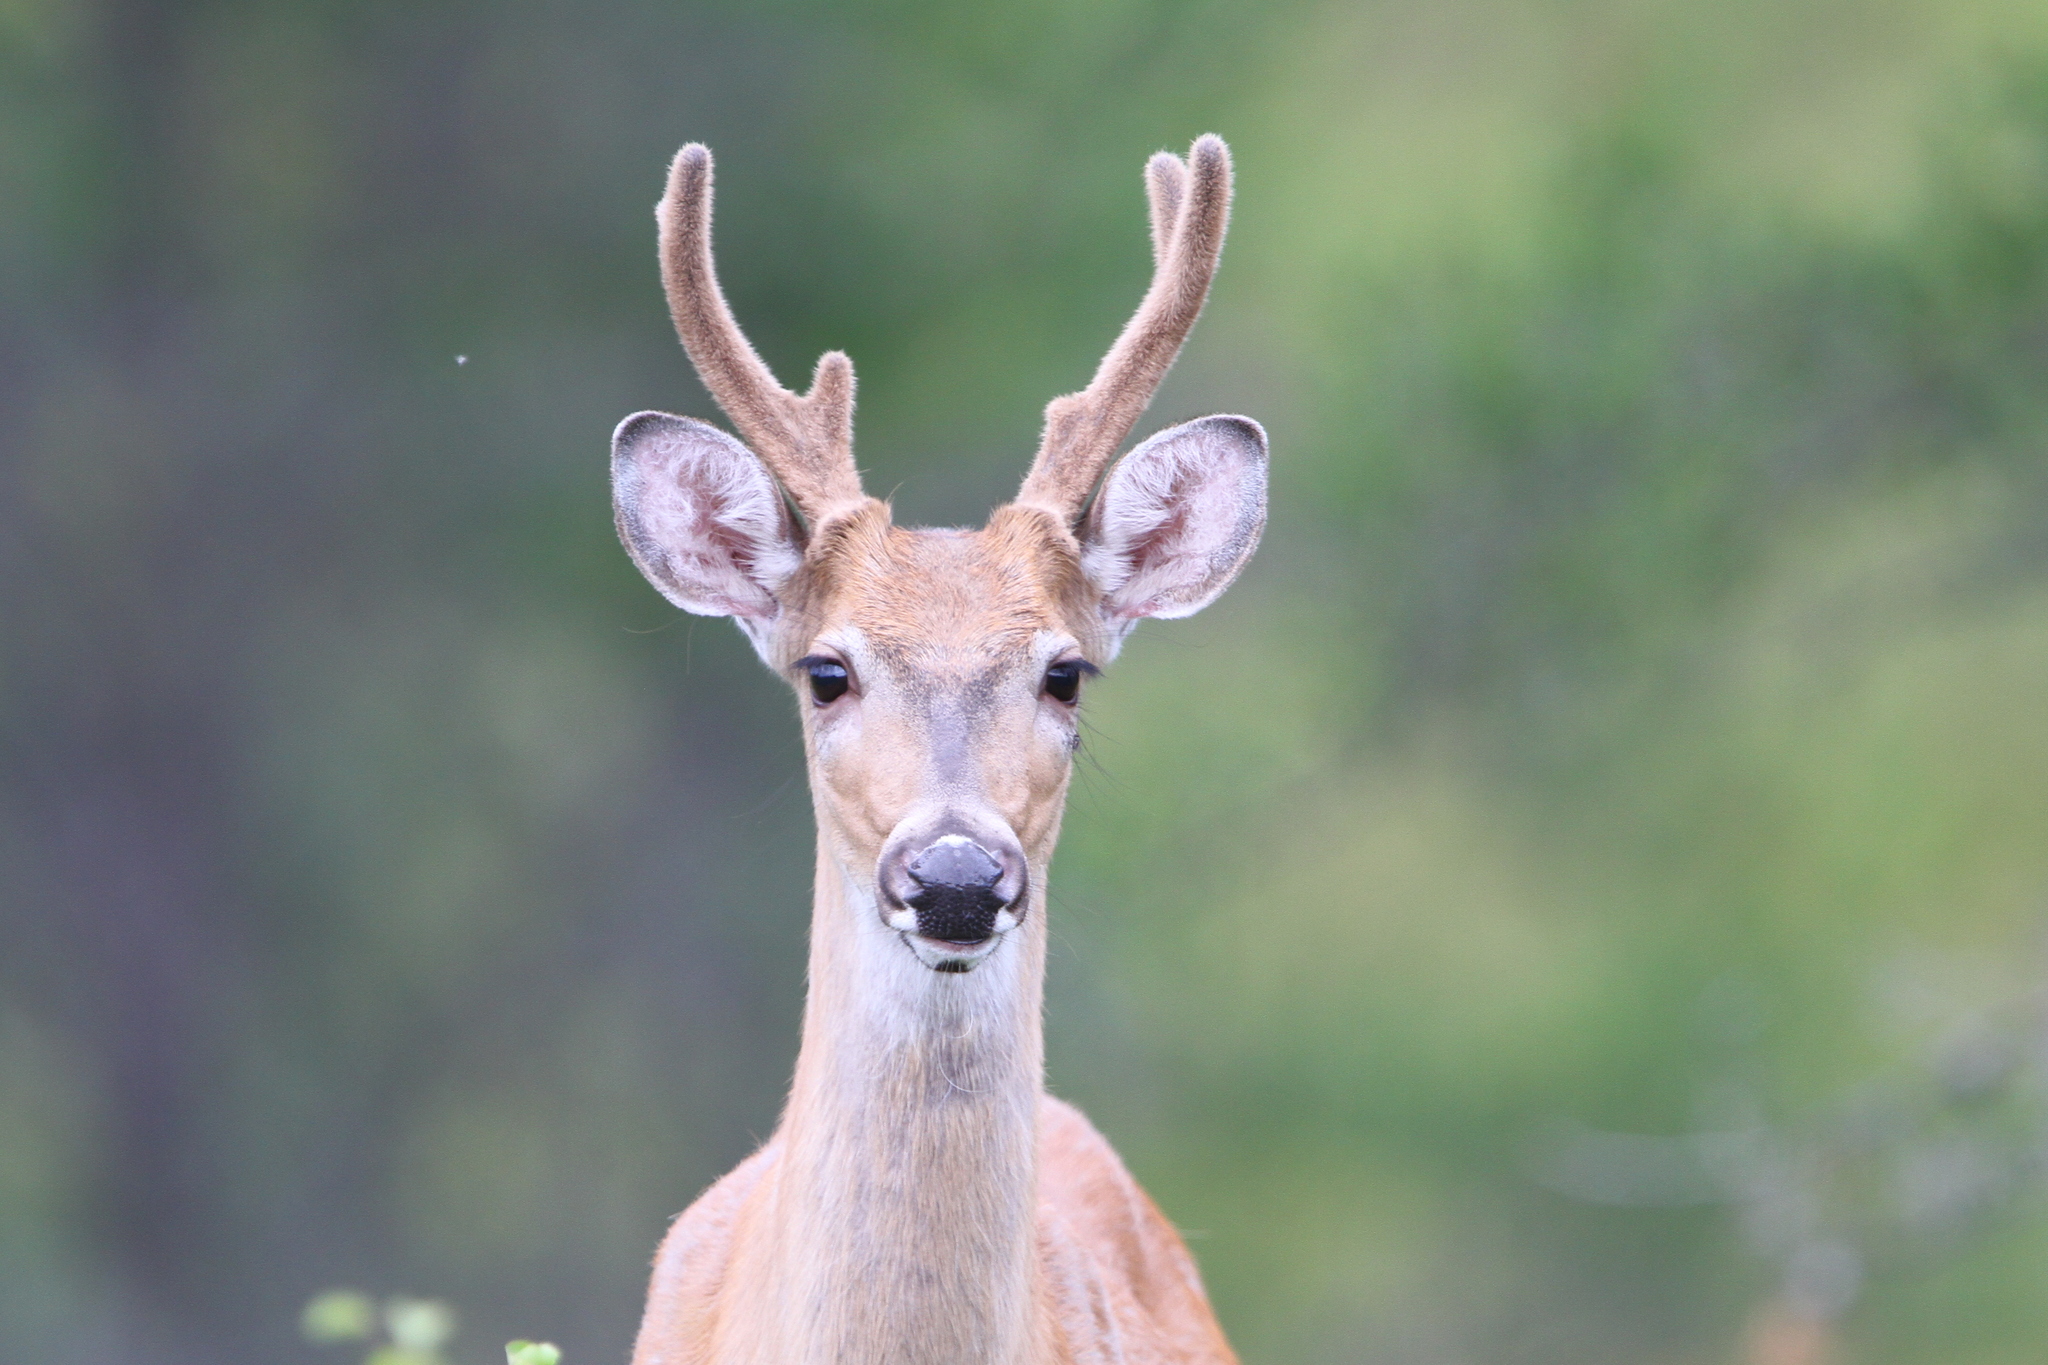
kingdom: Animalia
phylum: Chordata
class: Mammalia
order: Artiodactyla
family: Cervidae
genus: Odocoileus
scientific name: Odocoileus virginianus
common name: White-tailed deer
